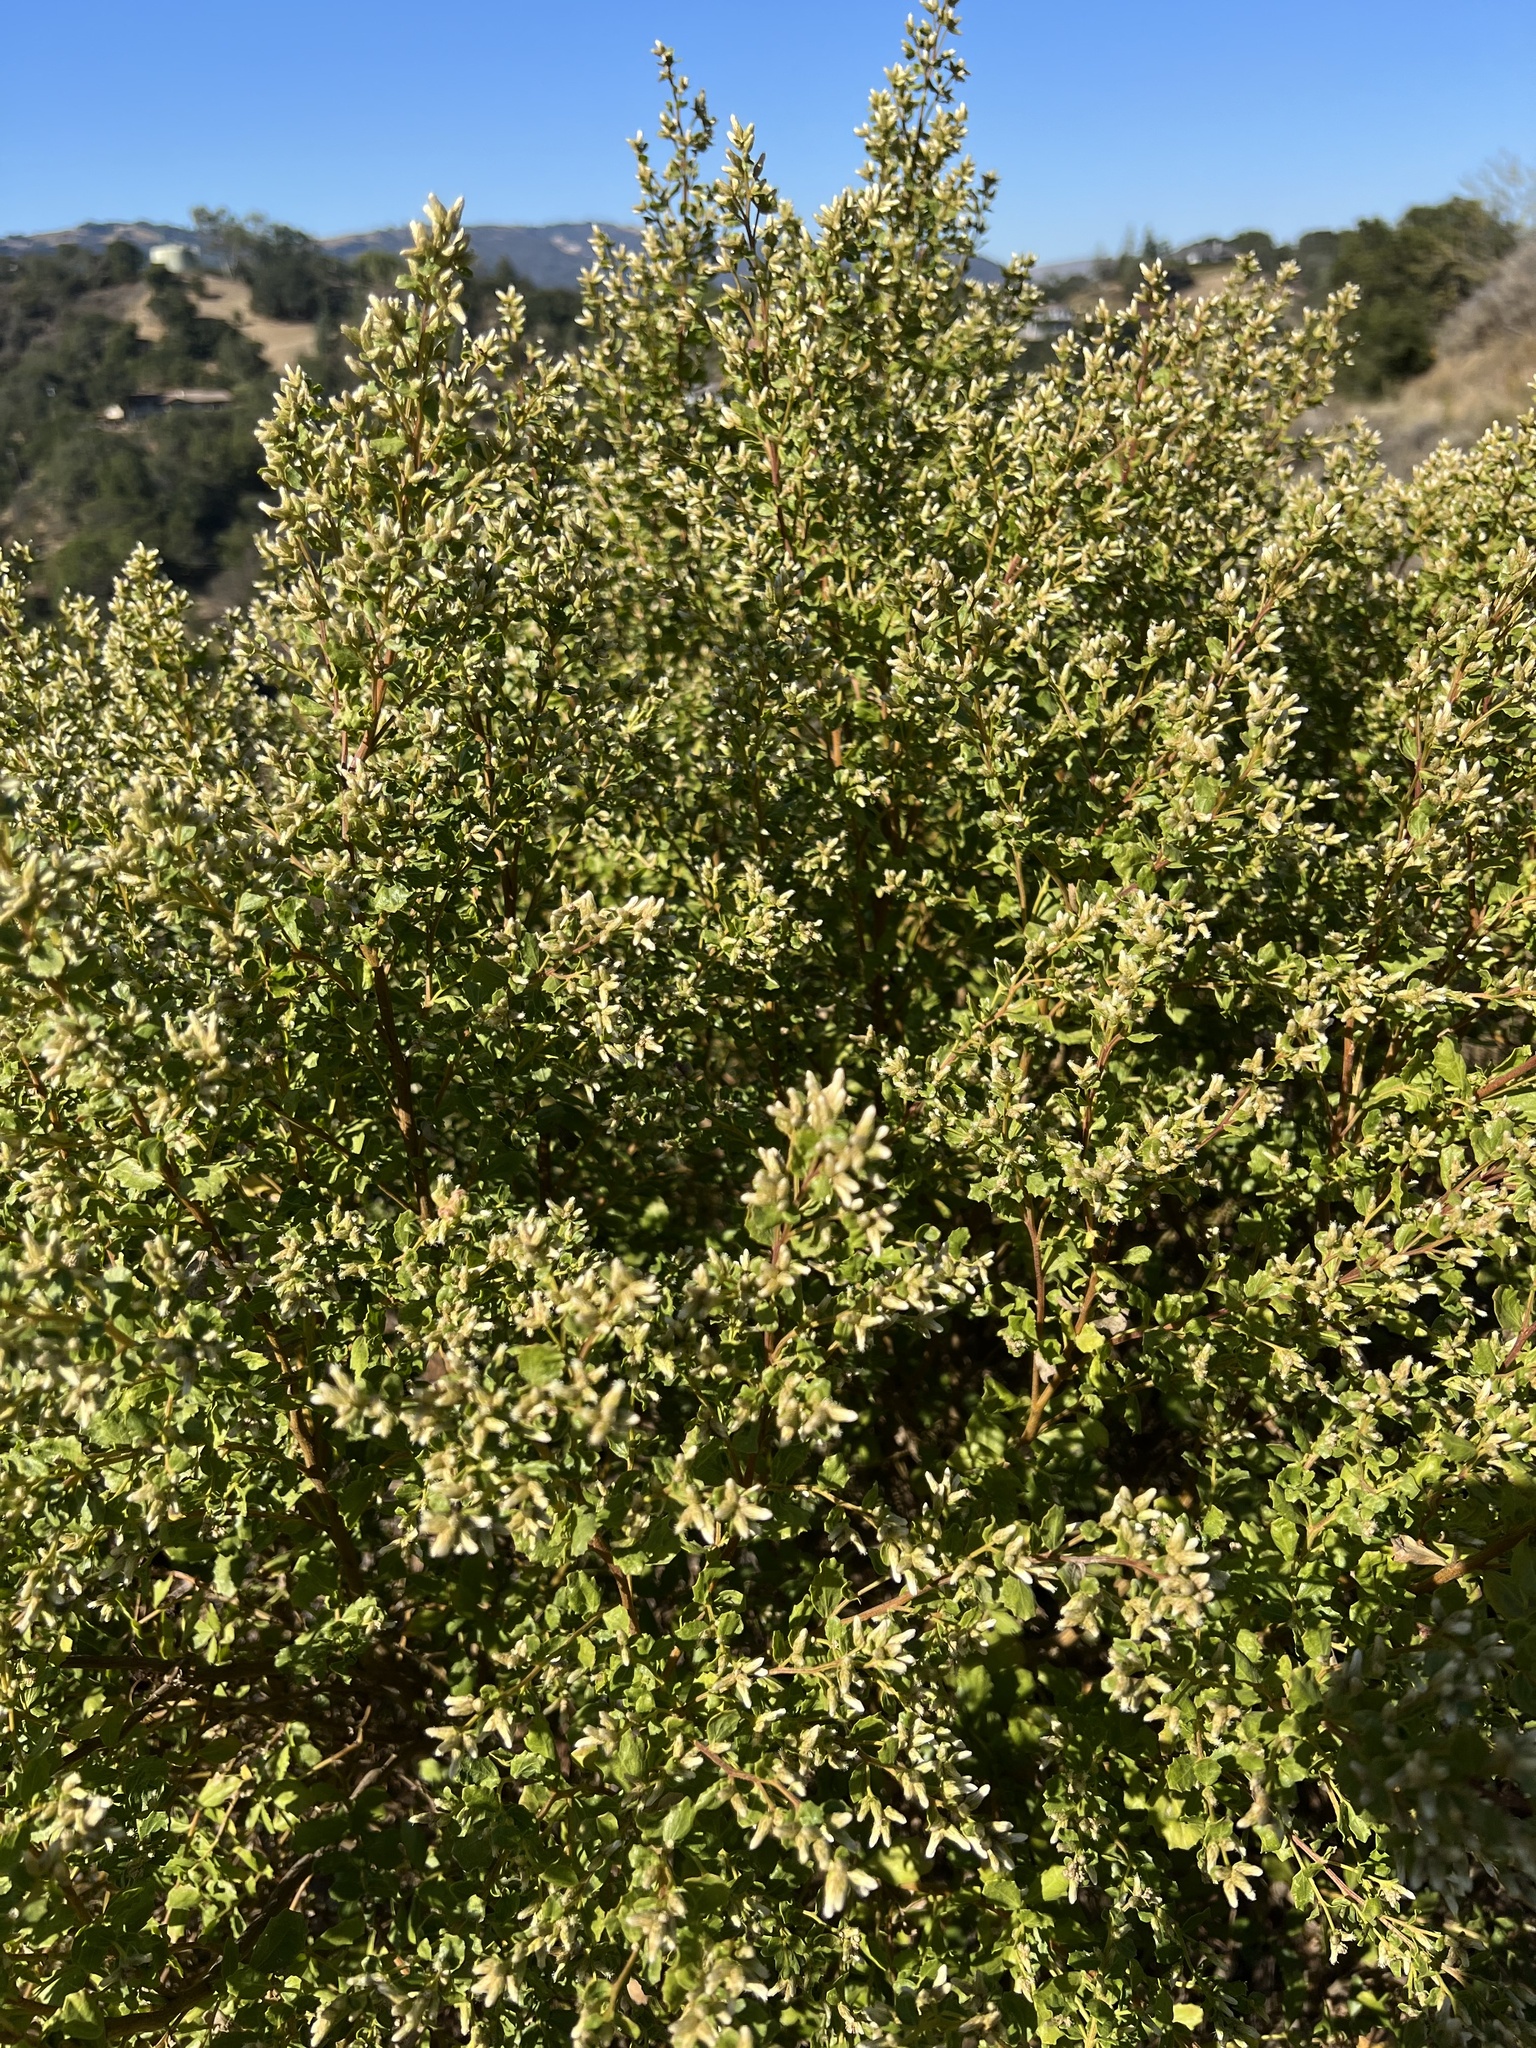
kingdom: Plantae
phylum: Tracheophyta
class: Magnoliopsida
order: Asterales
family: Asteraceae
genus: Baccharis
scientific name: Baccharis pilularis
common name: Coyotebrush
